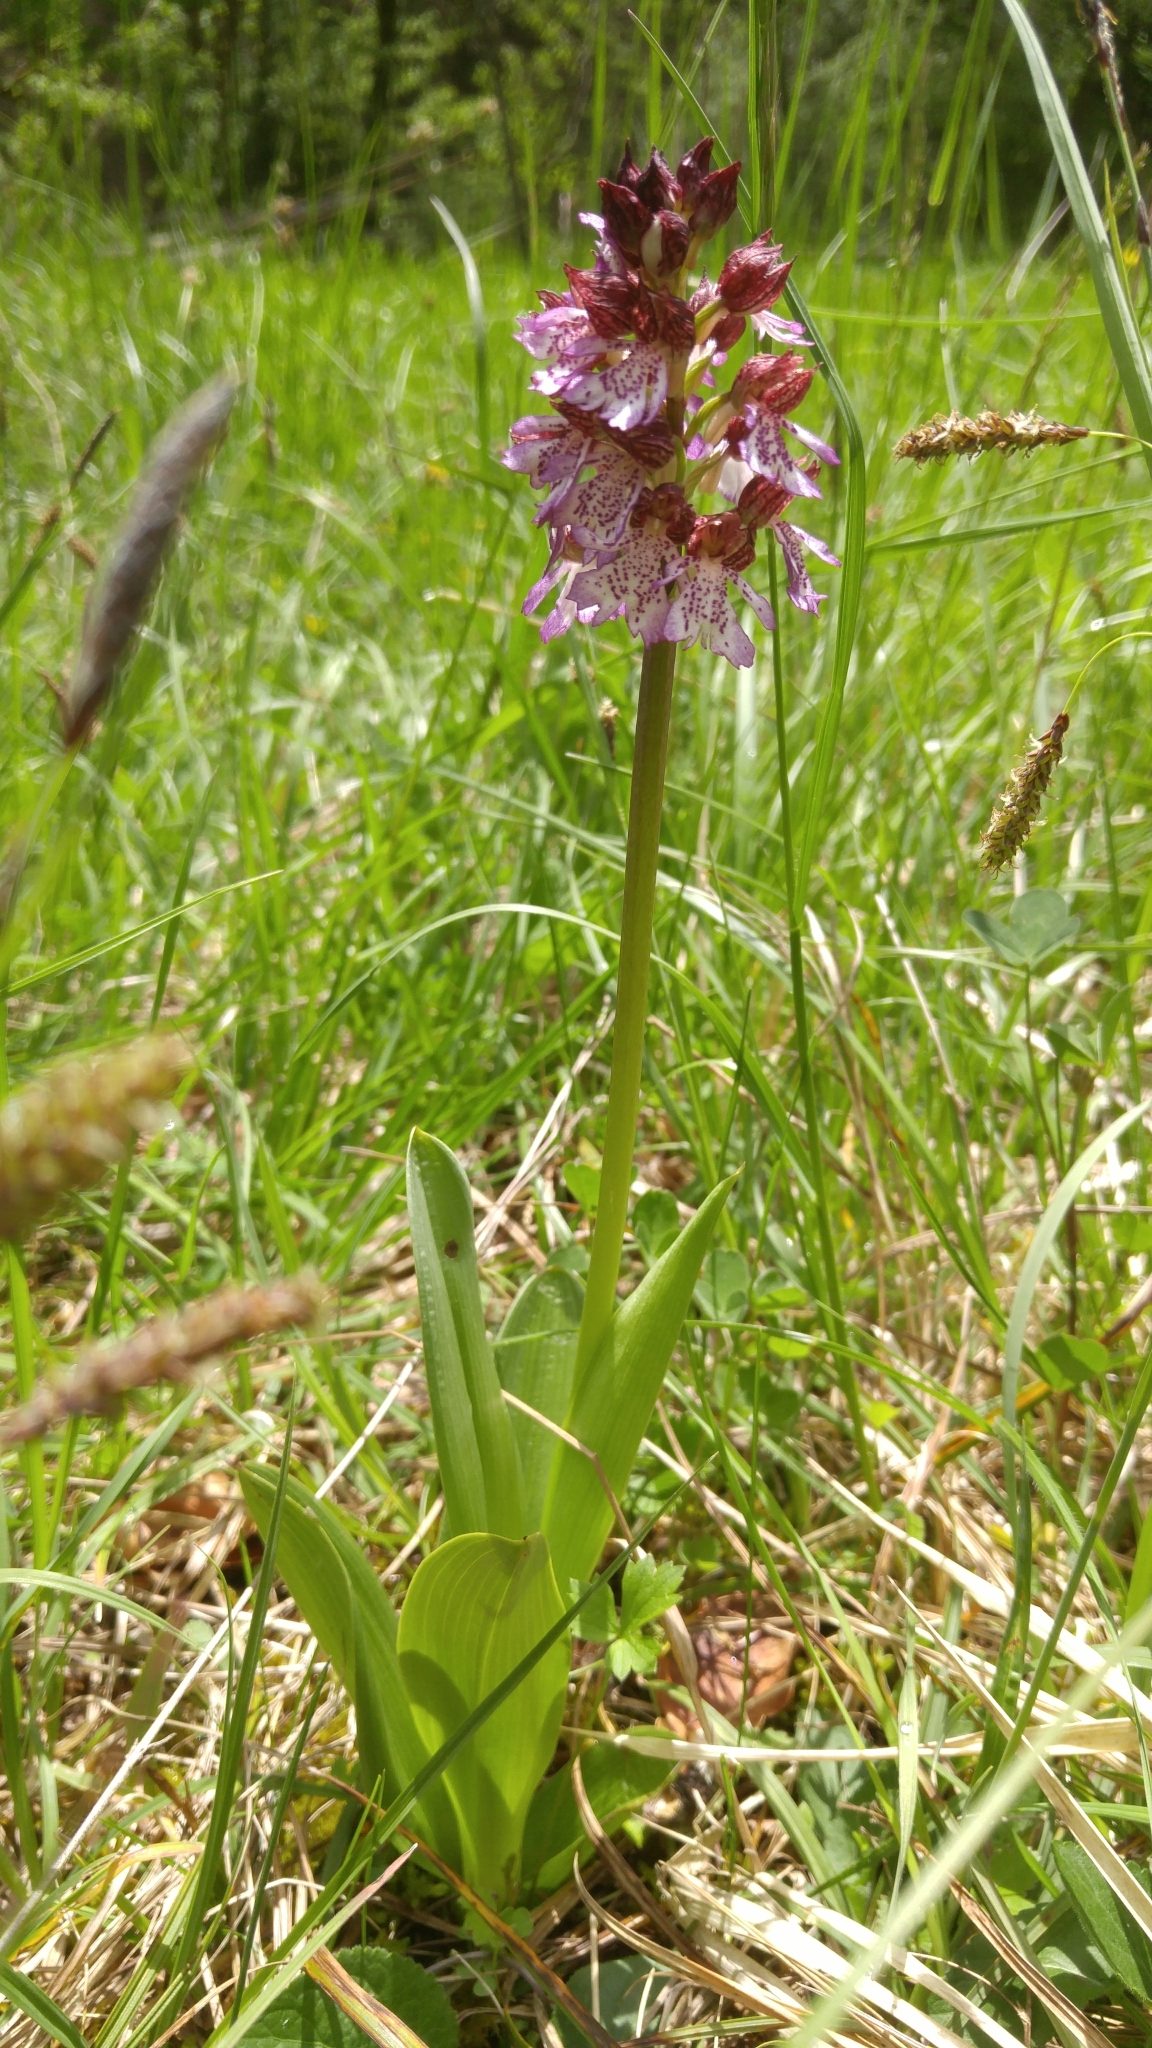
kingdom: Plantae
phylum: Tracheophyta
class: Liliopsida
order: Asparagales
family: Orchidaceae
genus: Orchis
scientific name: Orchis purpurea
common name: Lady orchid
